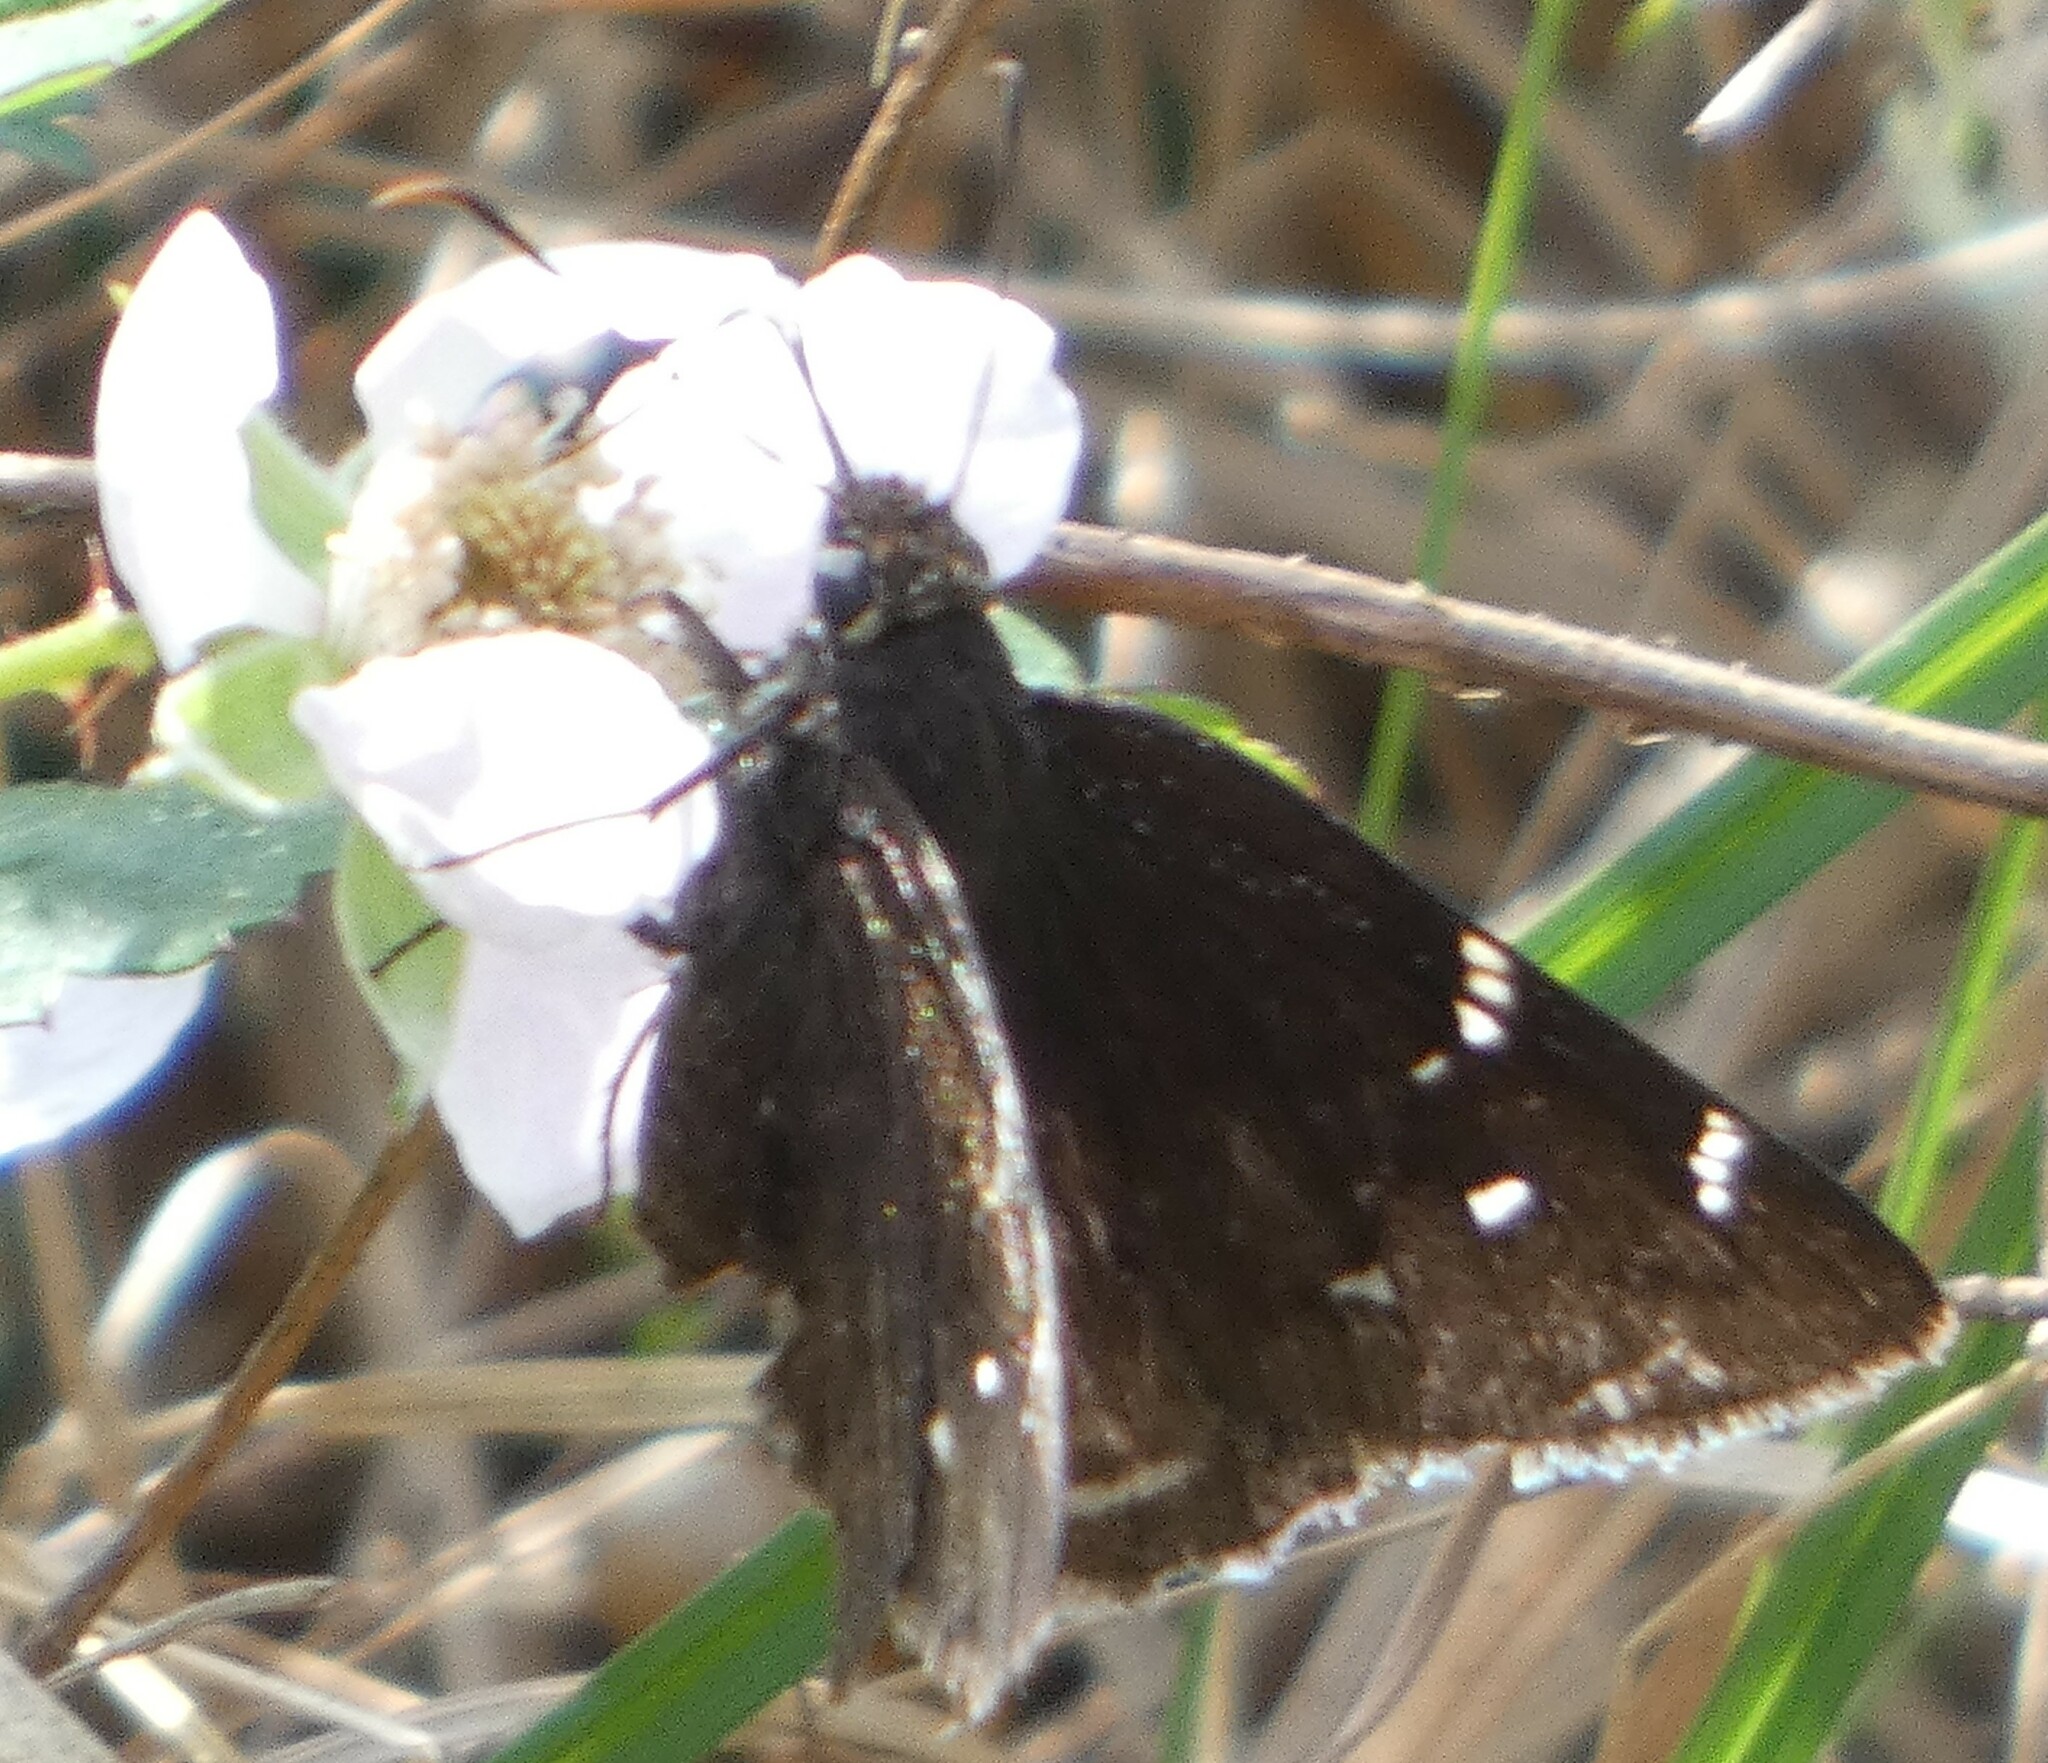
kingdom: Animalia
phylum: Arthropoda
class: Insecta
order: Lepidoptera
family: Hesperiidae
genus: Thorybes
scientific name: Thorybes mexicana
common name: Mexican cloudywing
